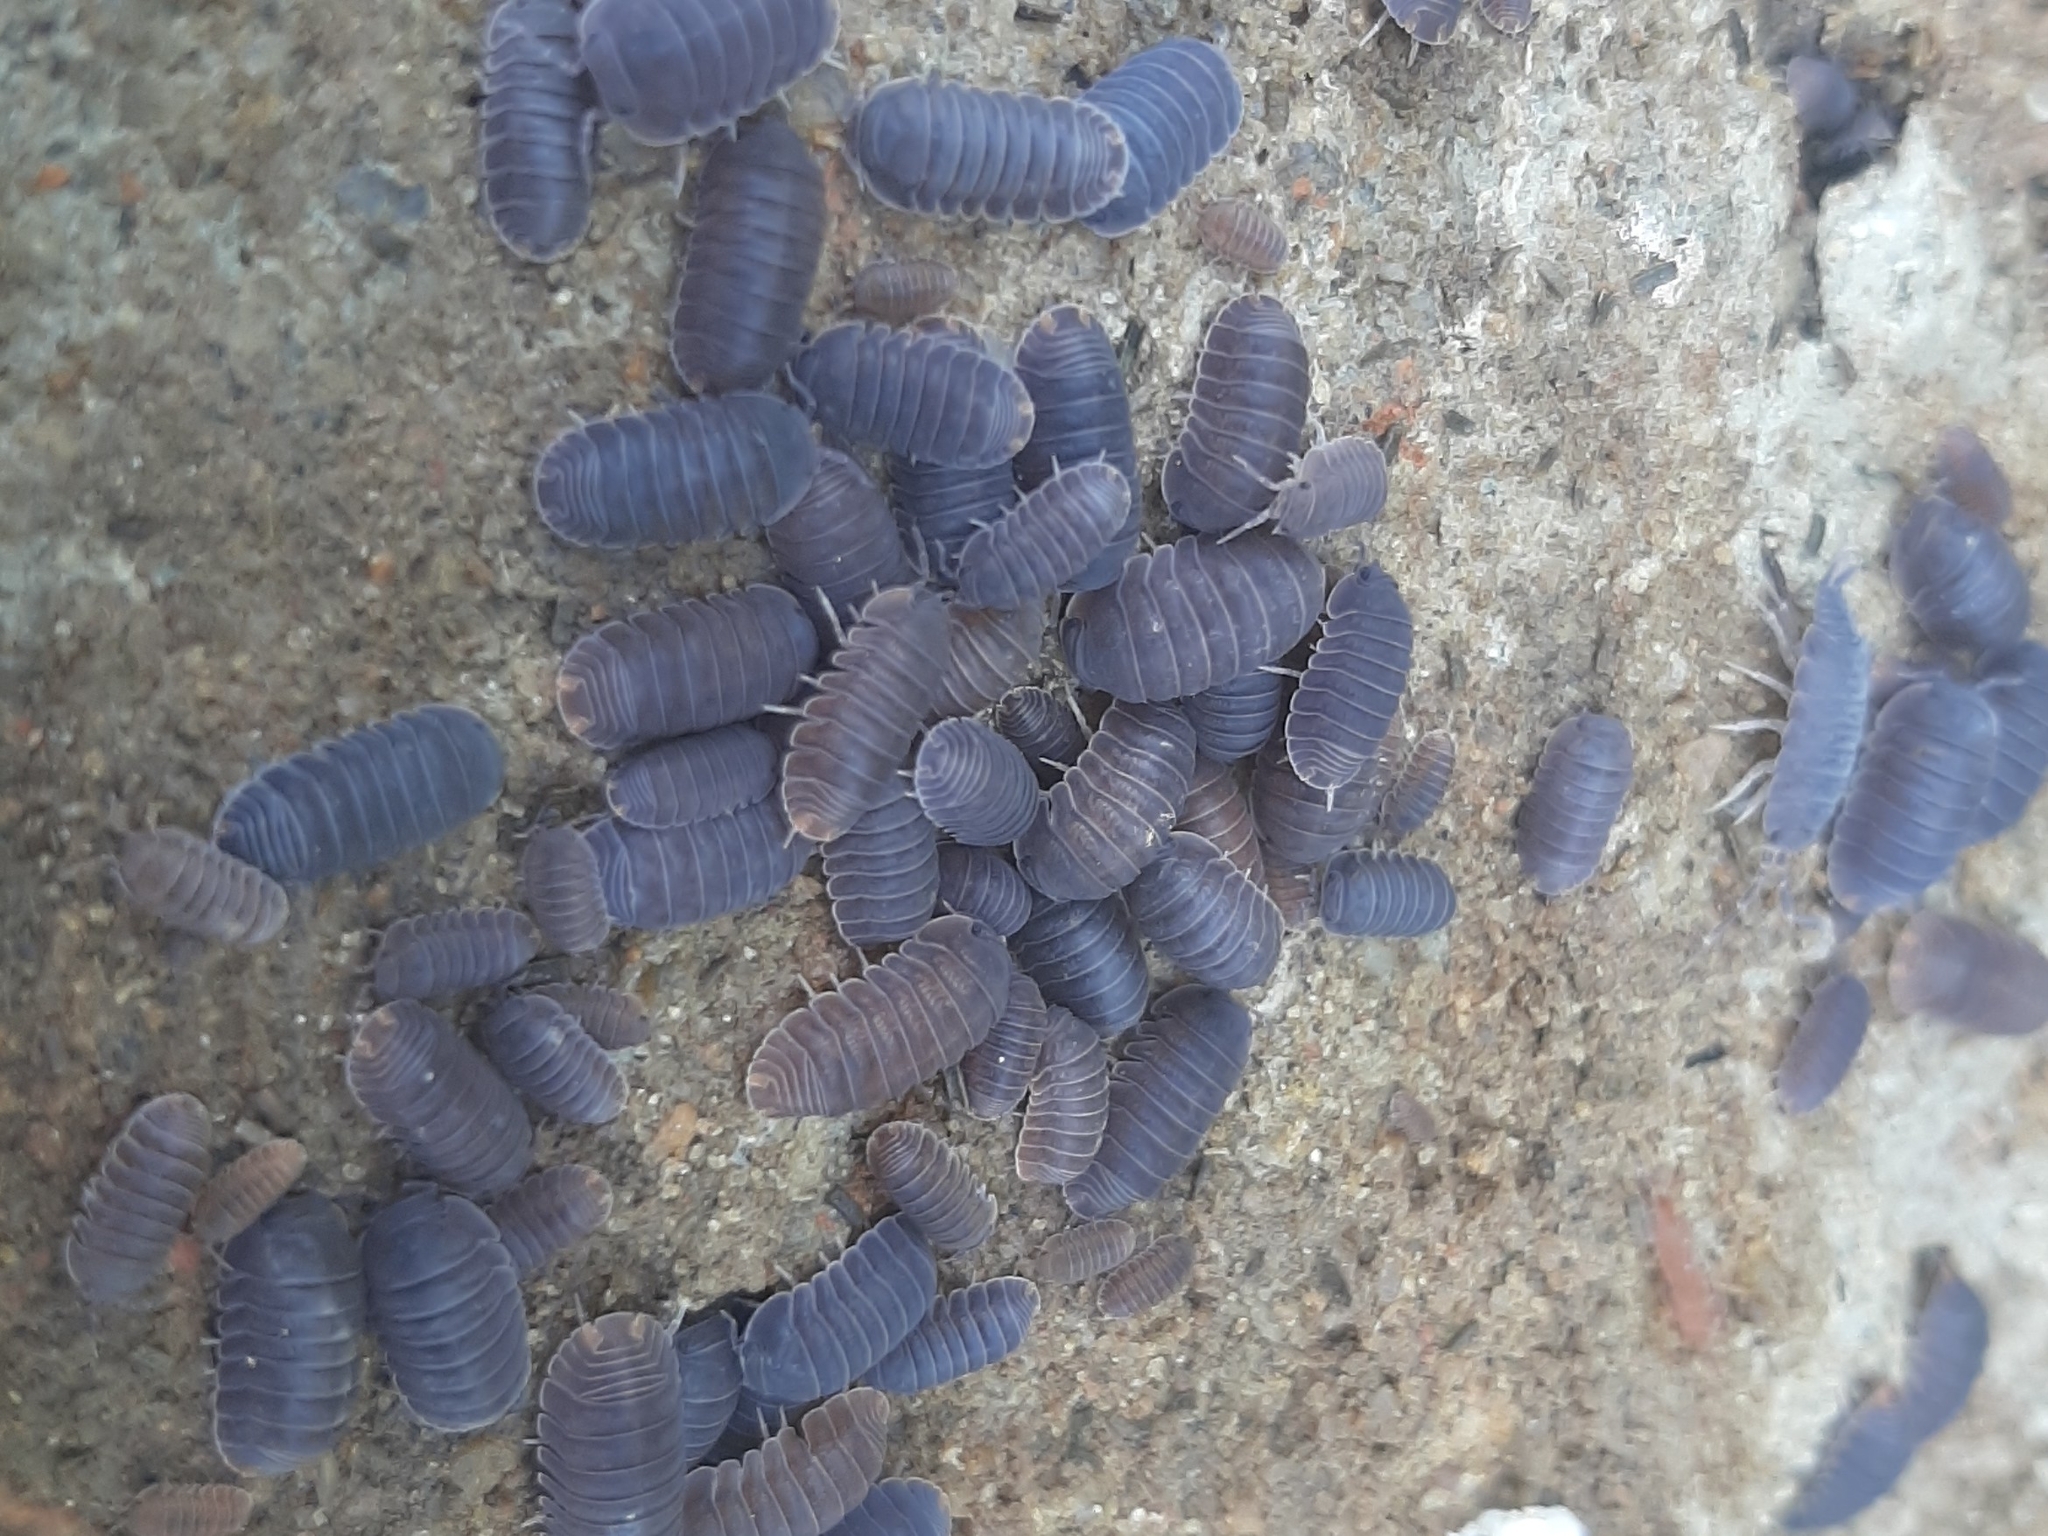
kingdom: Animalia
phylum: Arthropoda
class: Malacostraca
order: Isopoda
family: Armadillidae
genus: Cubaris
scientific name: Cubaris murina
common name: Pillbug
